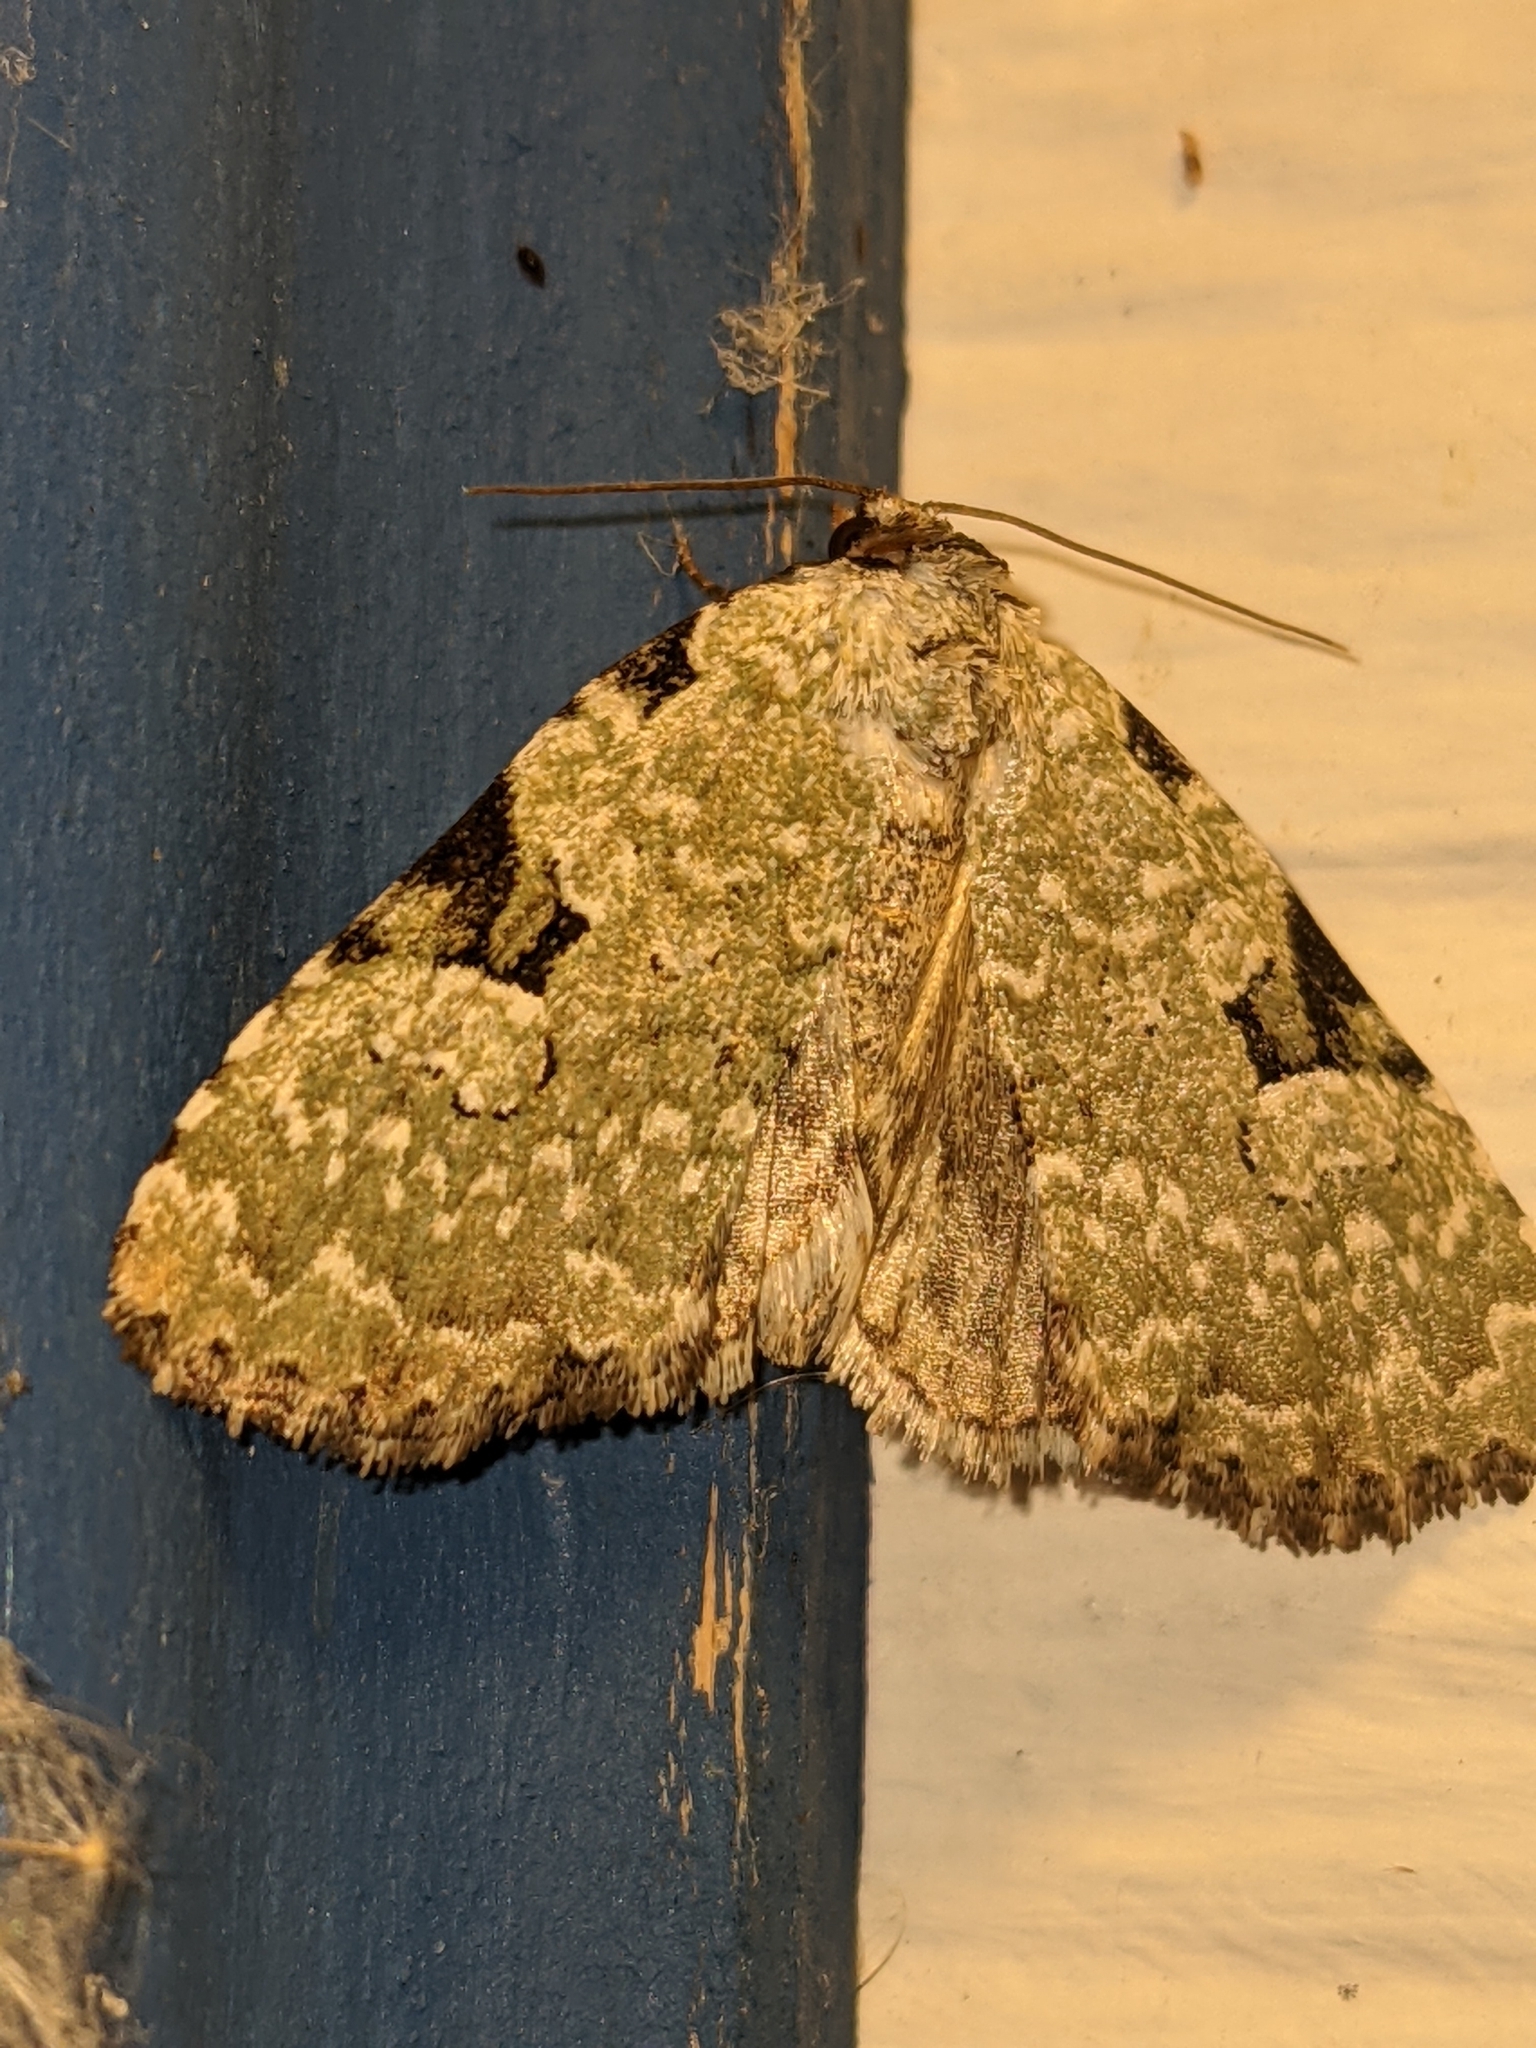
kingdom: Animalia
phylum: Arthropoda
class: Insecta
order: Lepidoptera
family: Noctuidae
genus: Leuconycta
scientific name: Leuconycta diphteroides
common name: Green leuconycta moth
